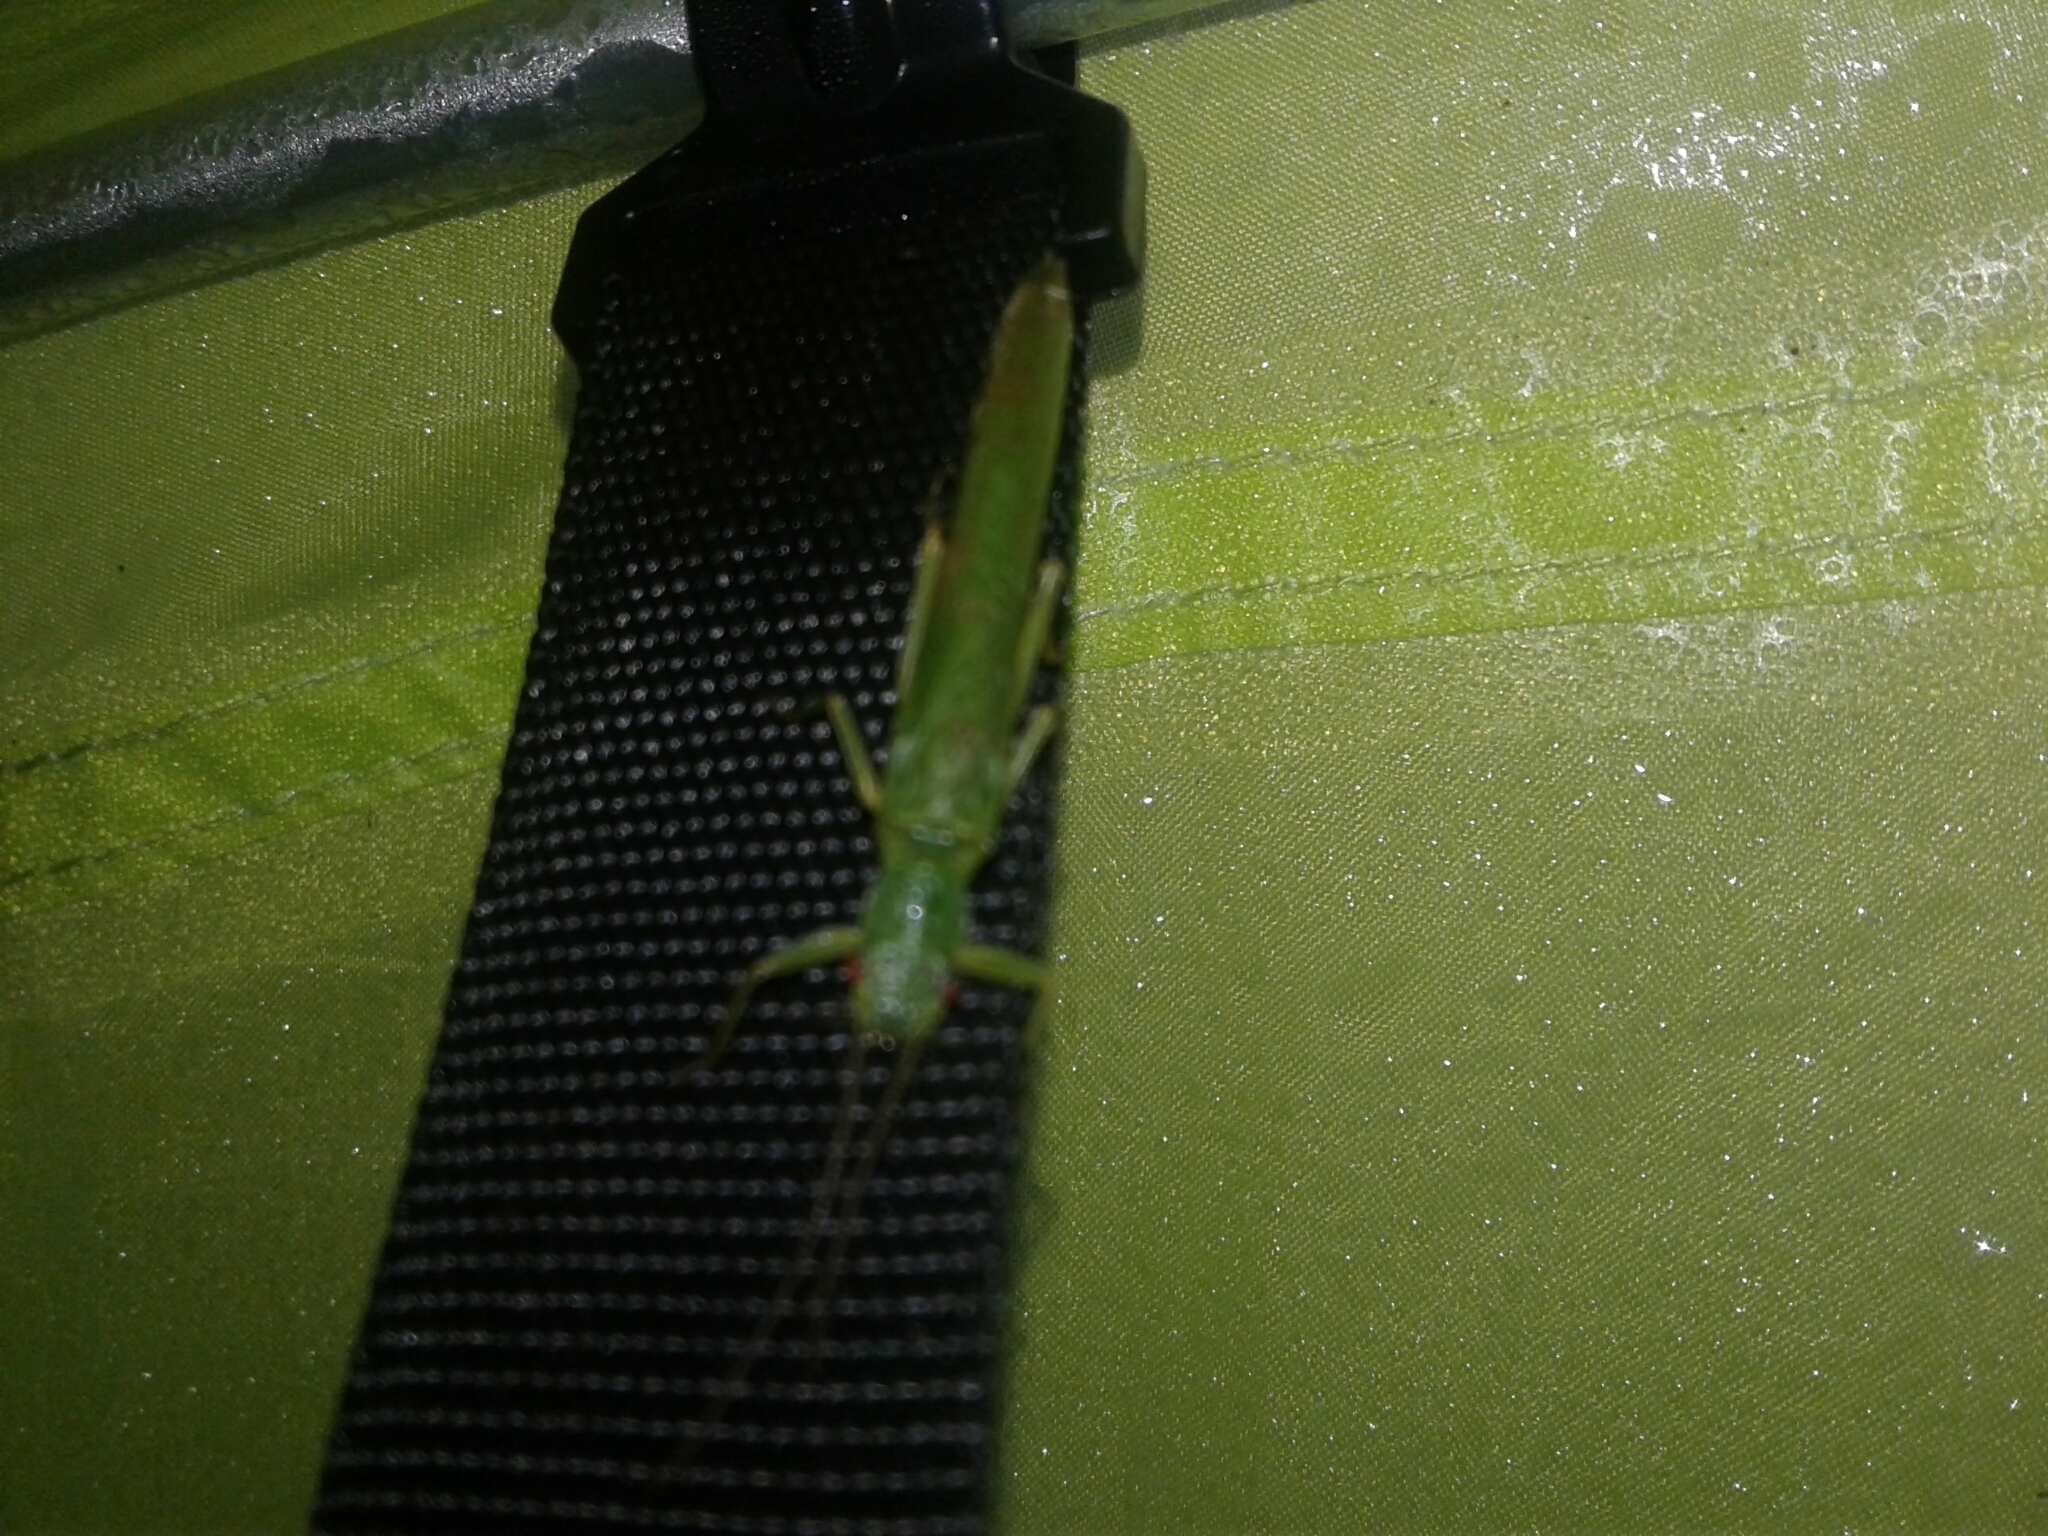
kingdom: Animalia
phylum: Arthropoda
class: Insecta
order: Plecoptera
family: Eustheniidae
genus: Stenoperla
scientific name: Stenoperla
